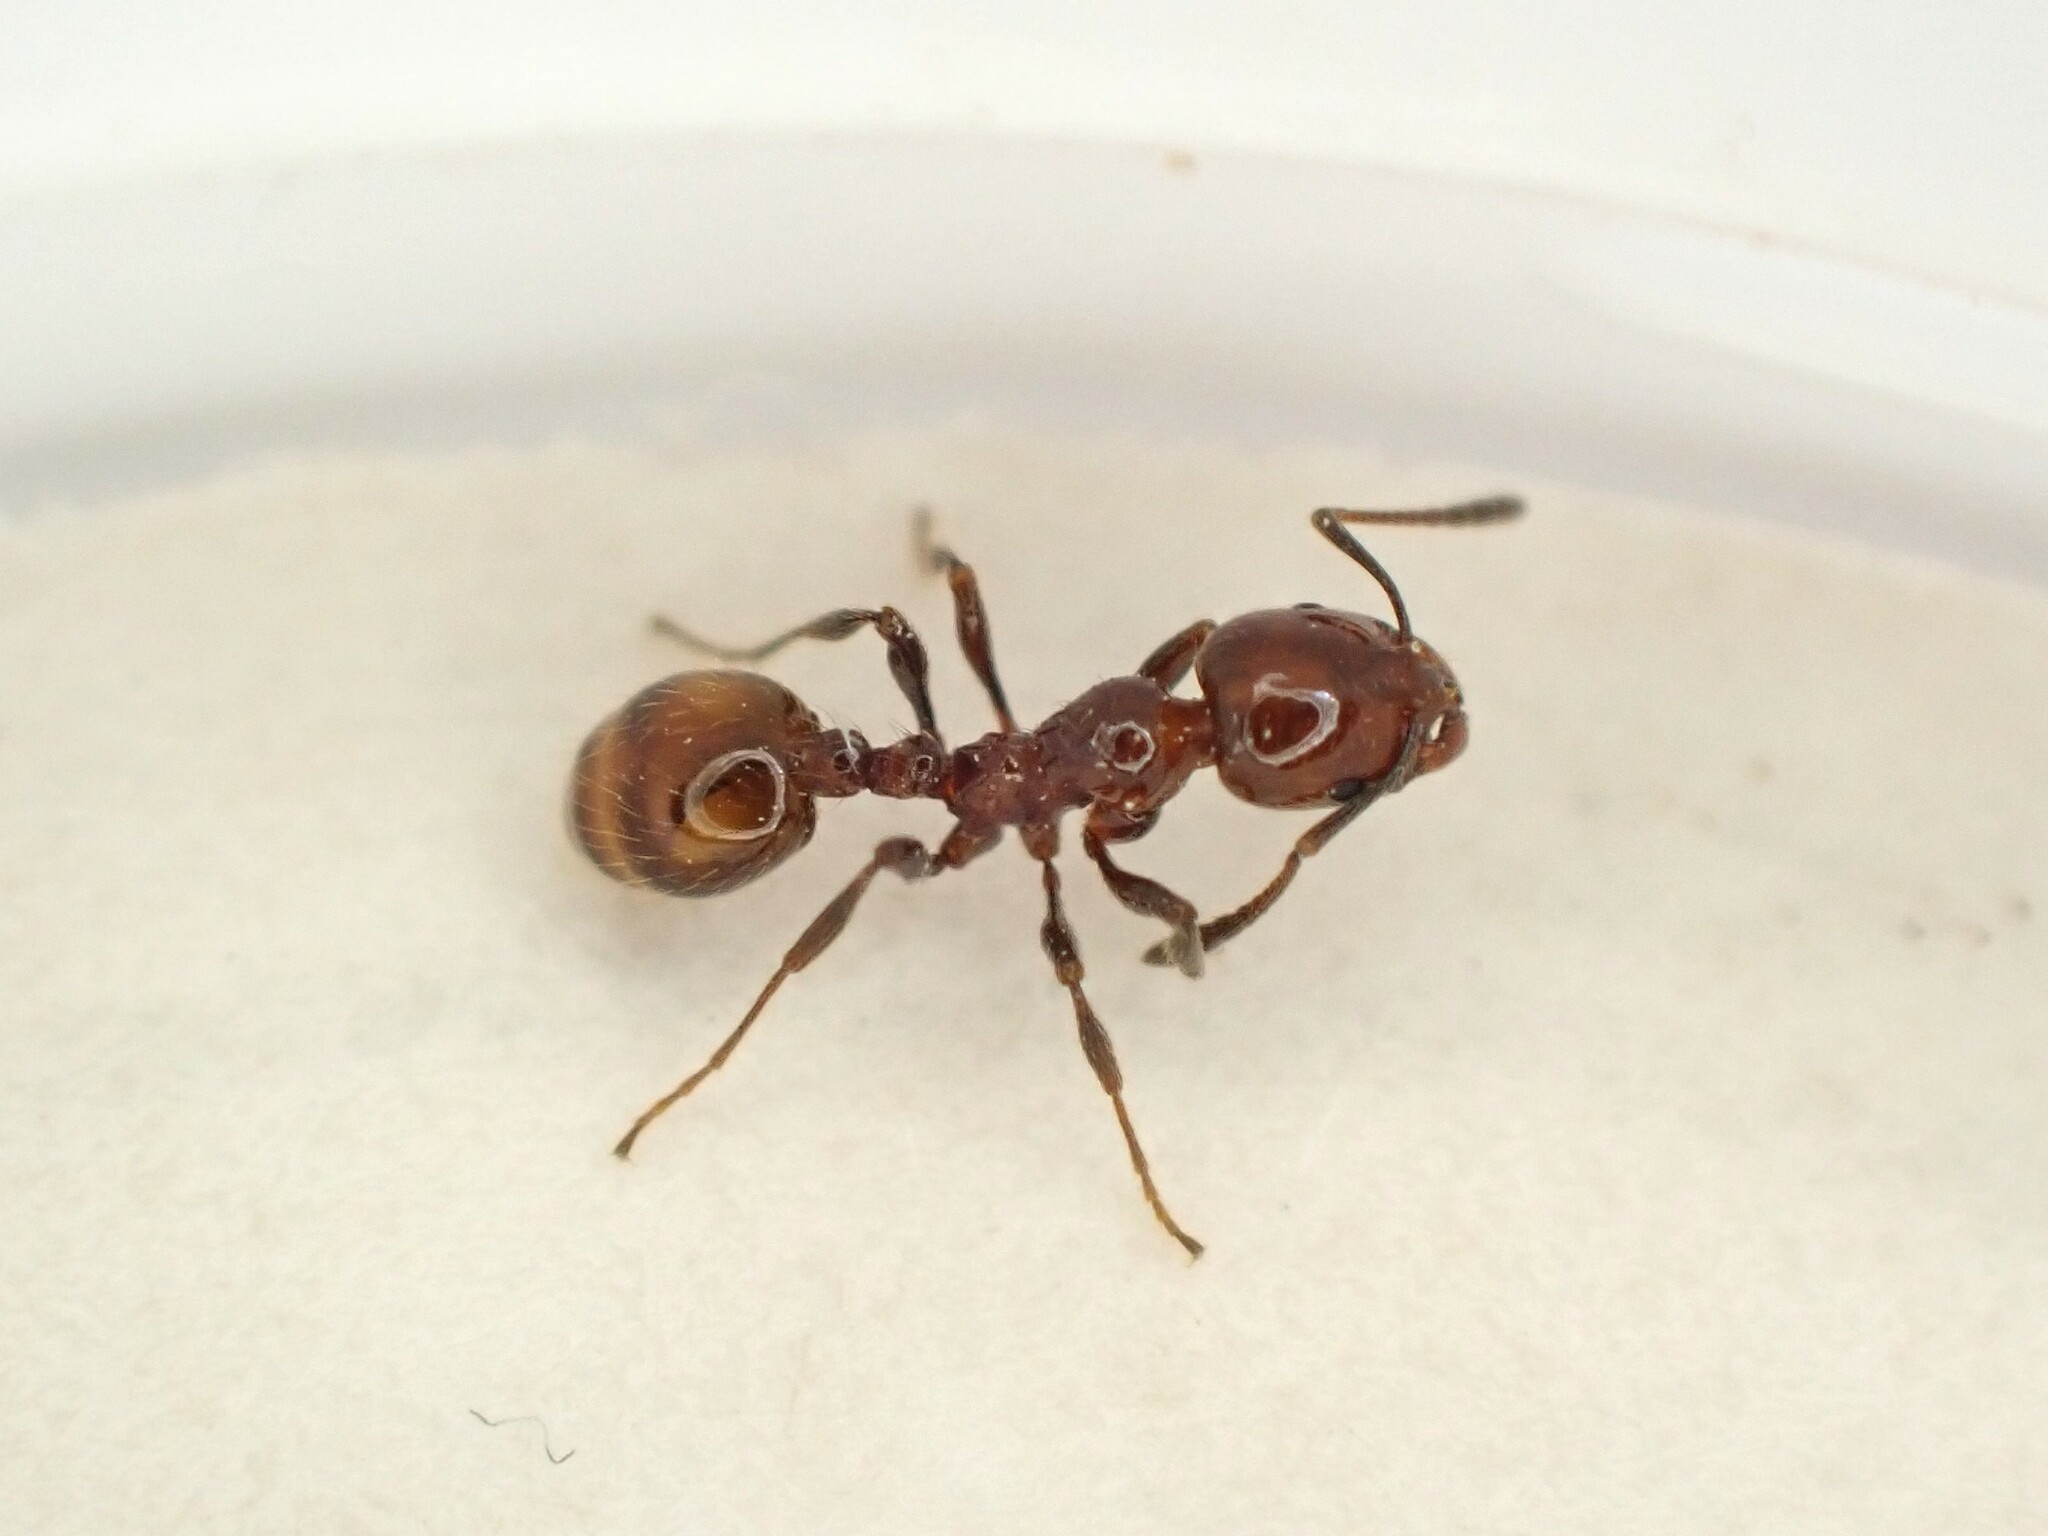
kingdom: Animalia
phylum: Arthropoda
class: Insecta
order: Hymenoptera
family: Formicidae
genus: Monomorium
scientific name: Monomorium antarcticum
